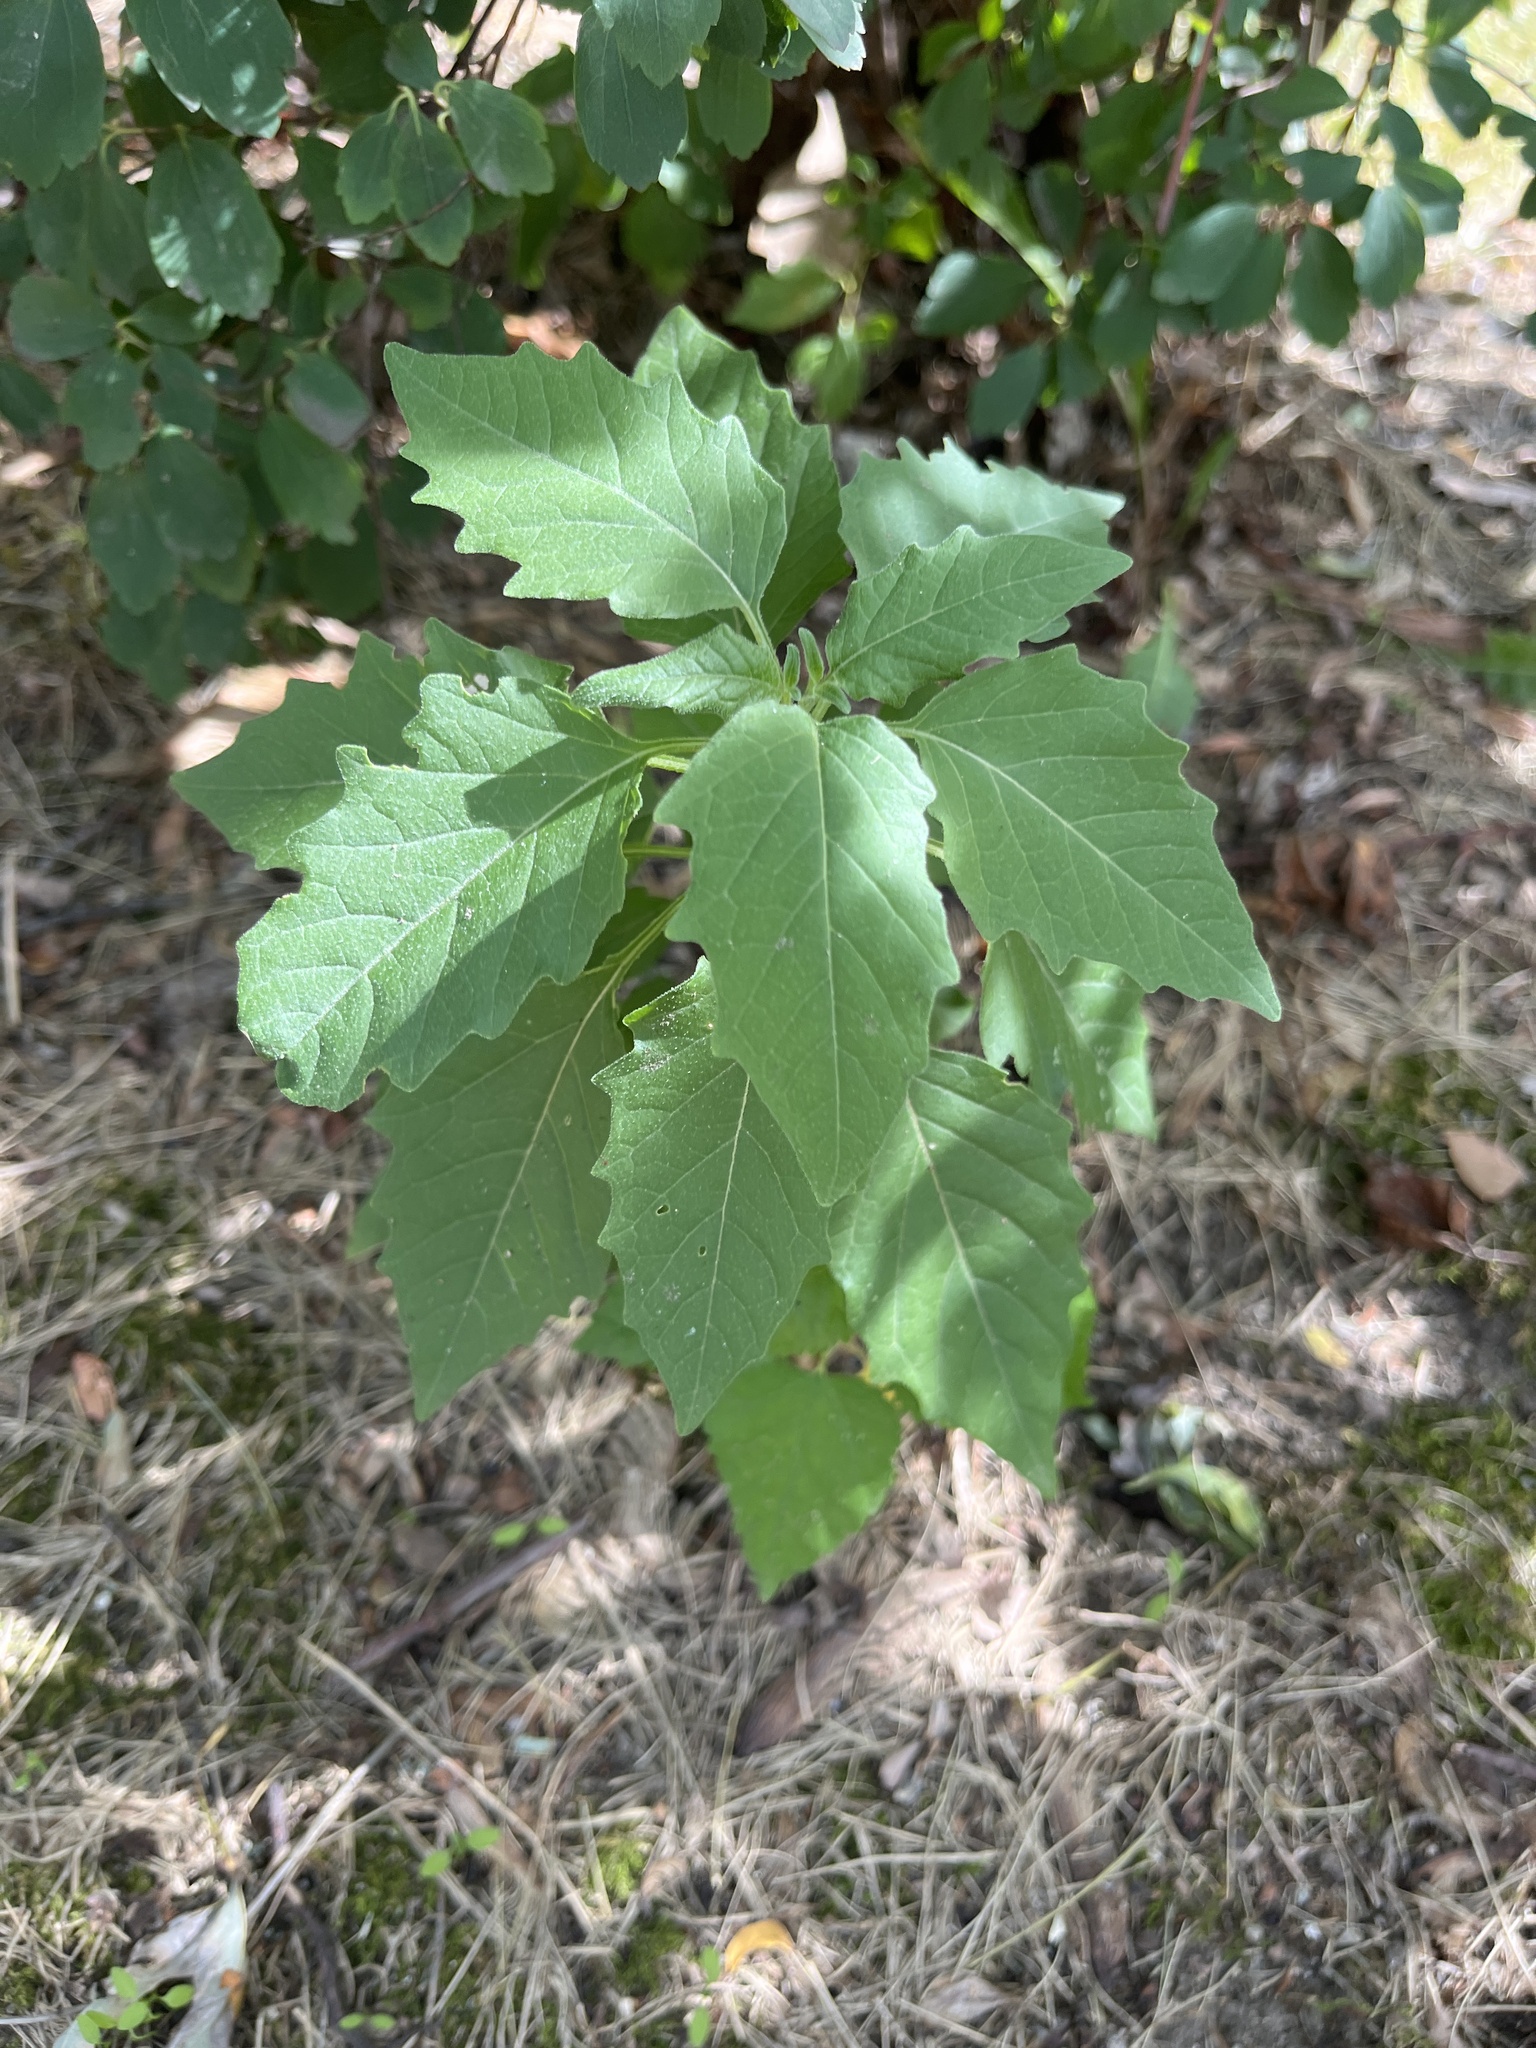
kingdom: Plantae
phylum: Tracheophyta
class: Magnoliopsida
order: Solanales
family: Solanaceae
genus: Solanum
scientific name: Solanum
